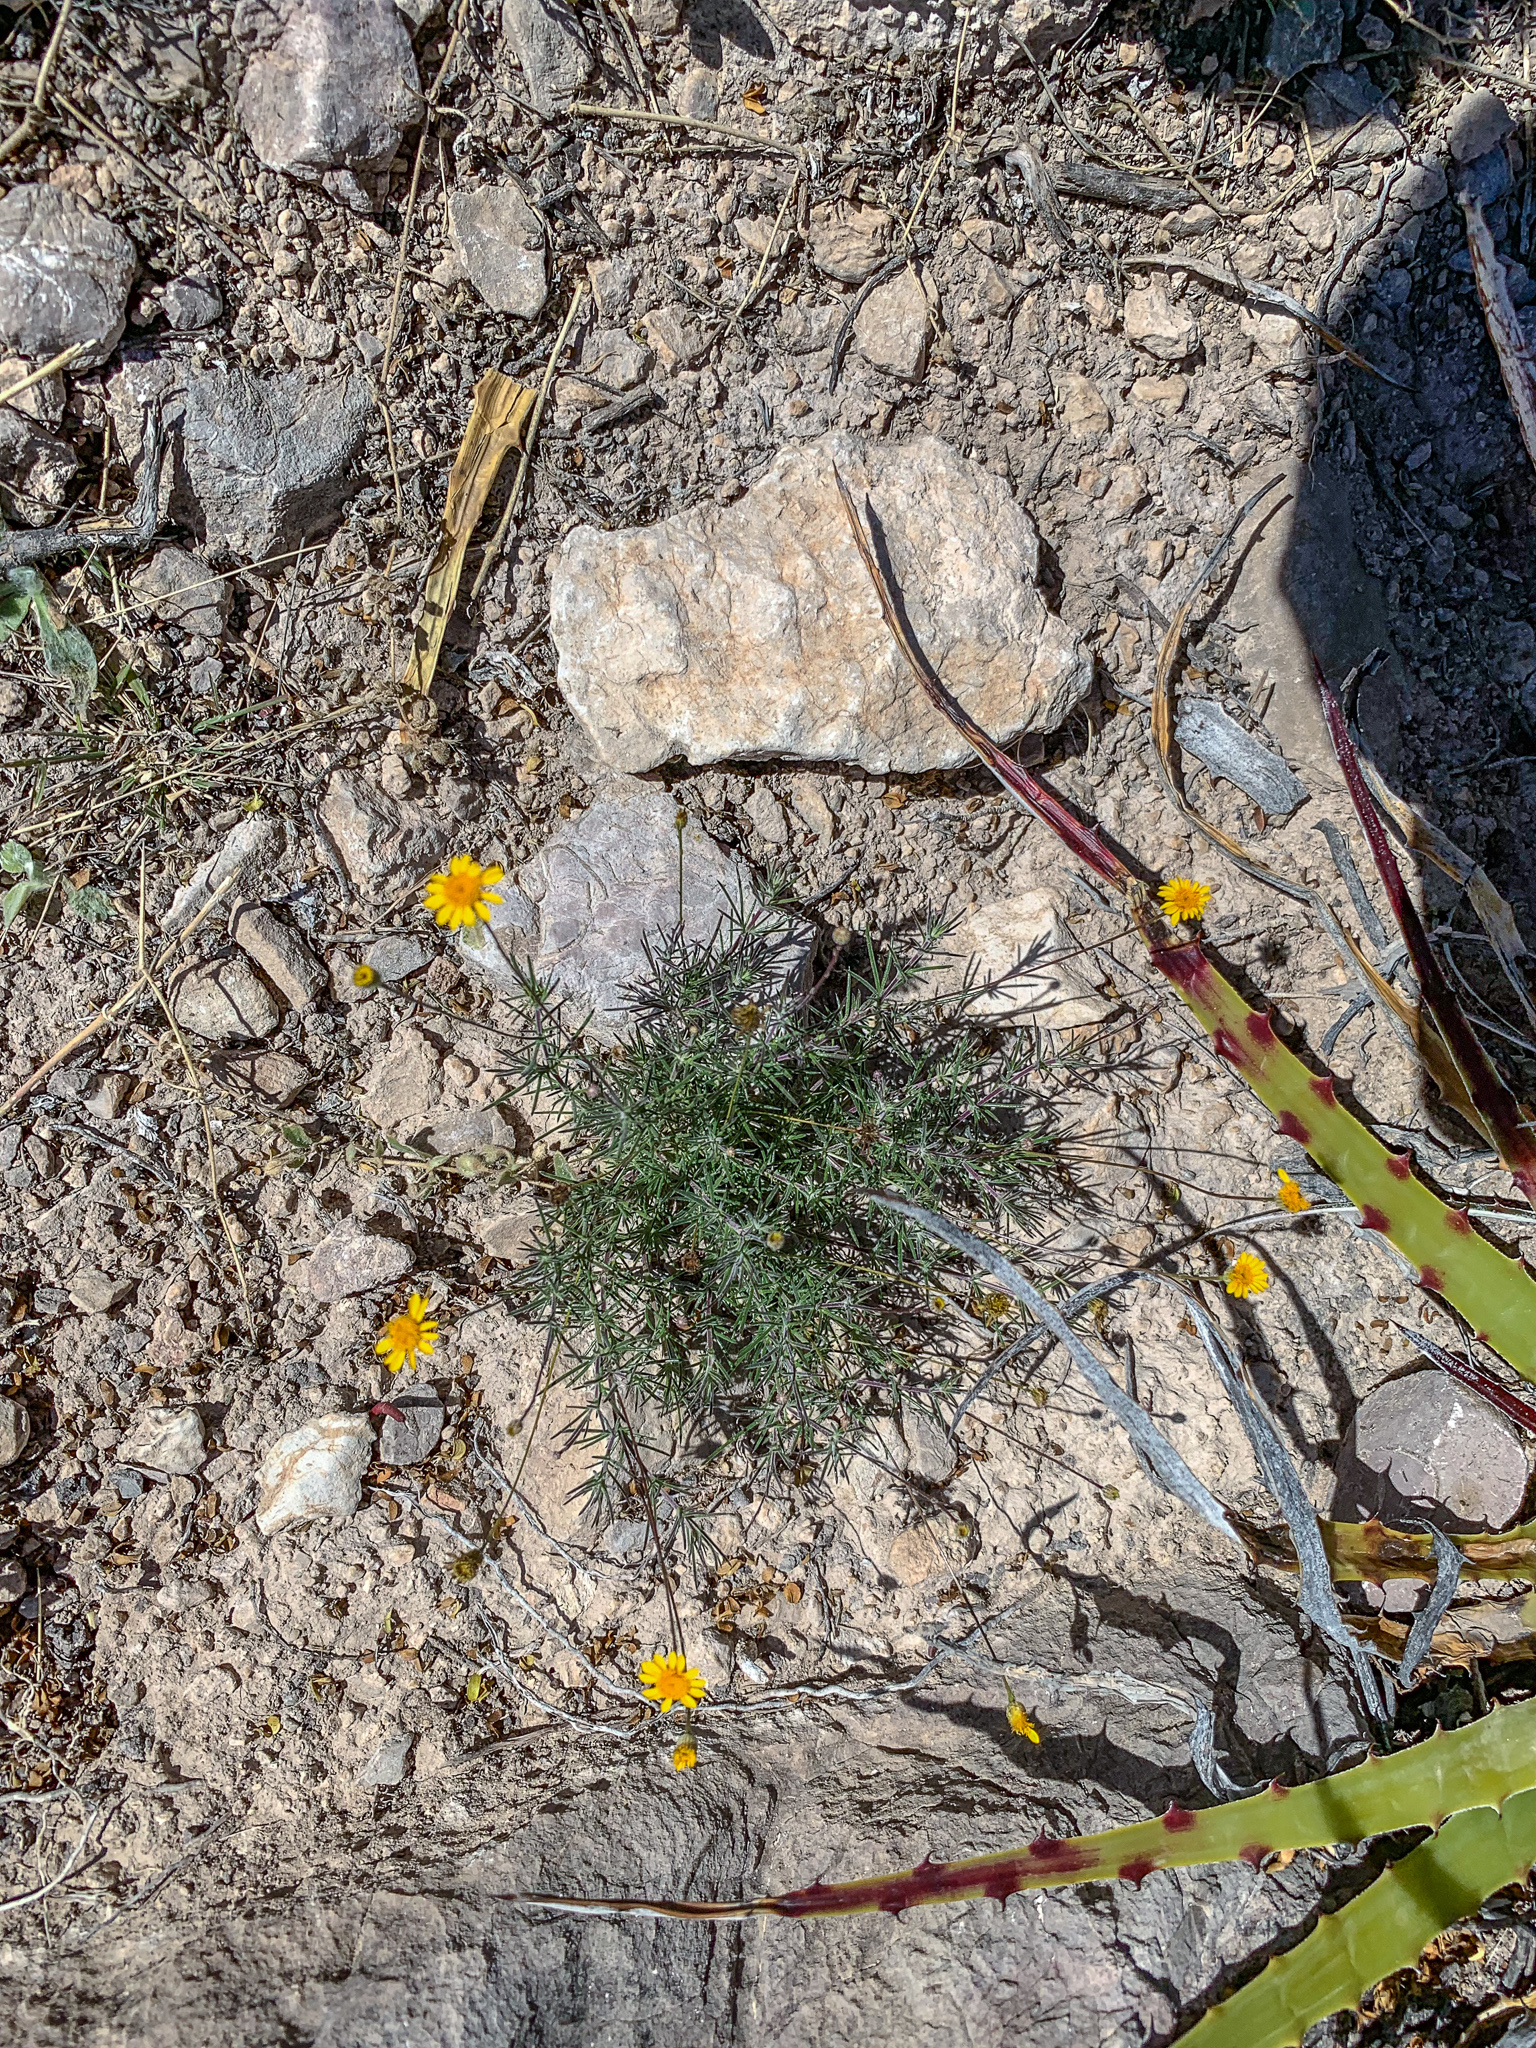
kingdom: Plantae
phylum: Tracheophyta
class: Magnoliopsida
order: Asterales
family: Asteraceae
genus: Thymophylla
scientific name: Thymophylla pentachaeta
